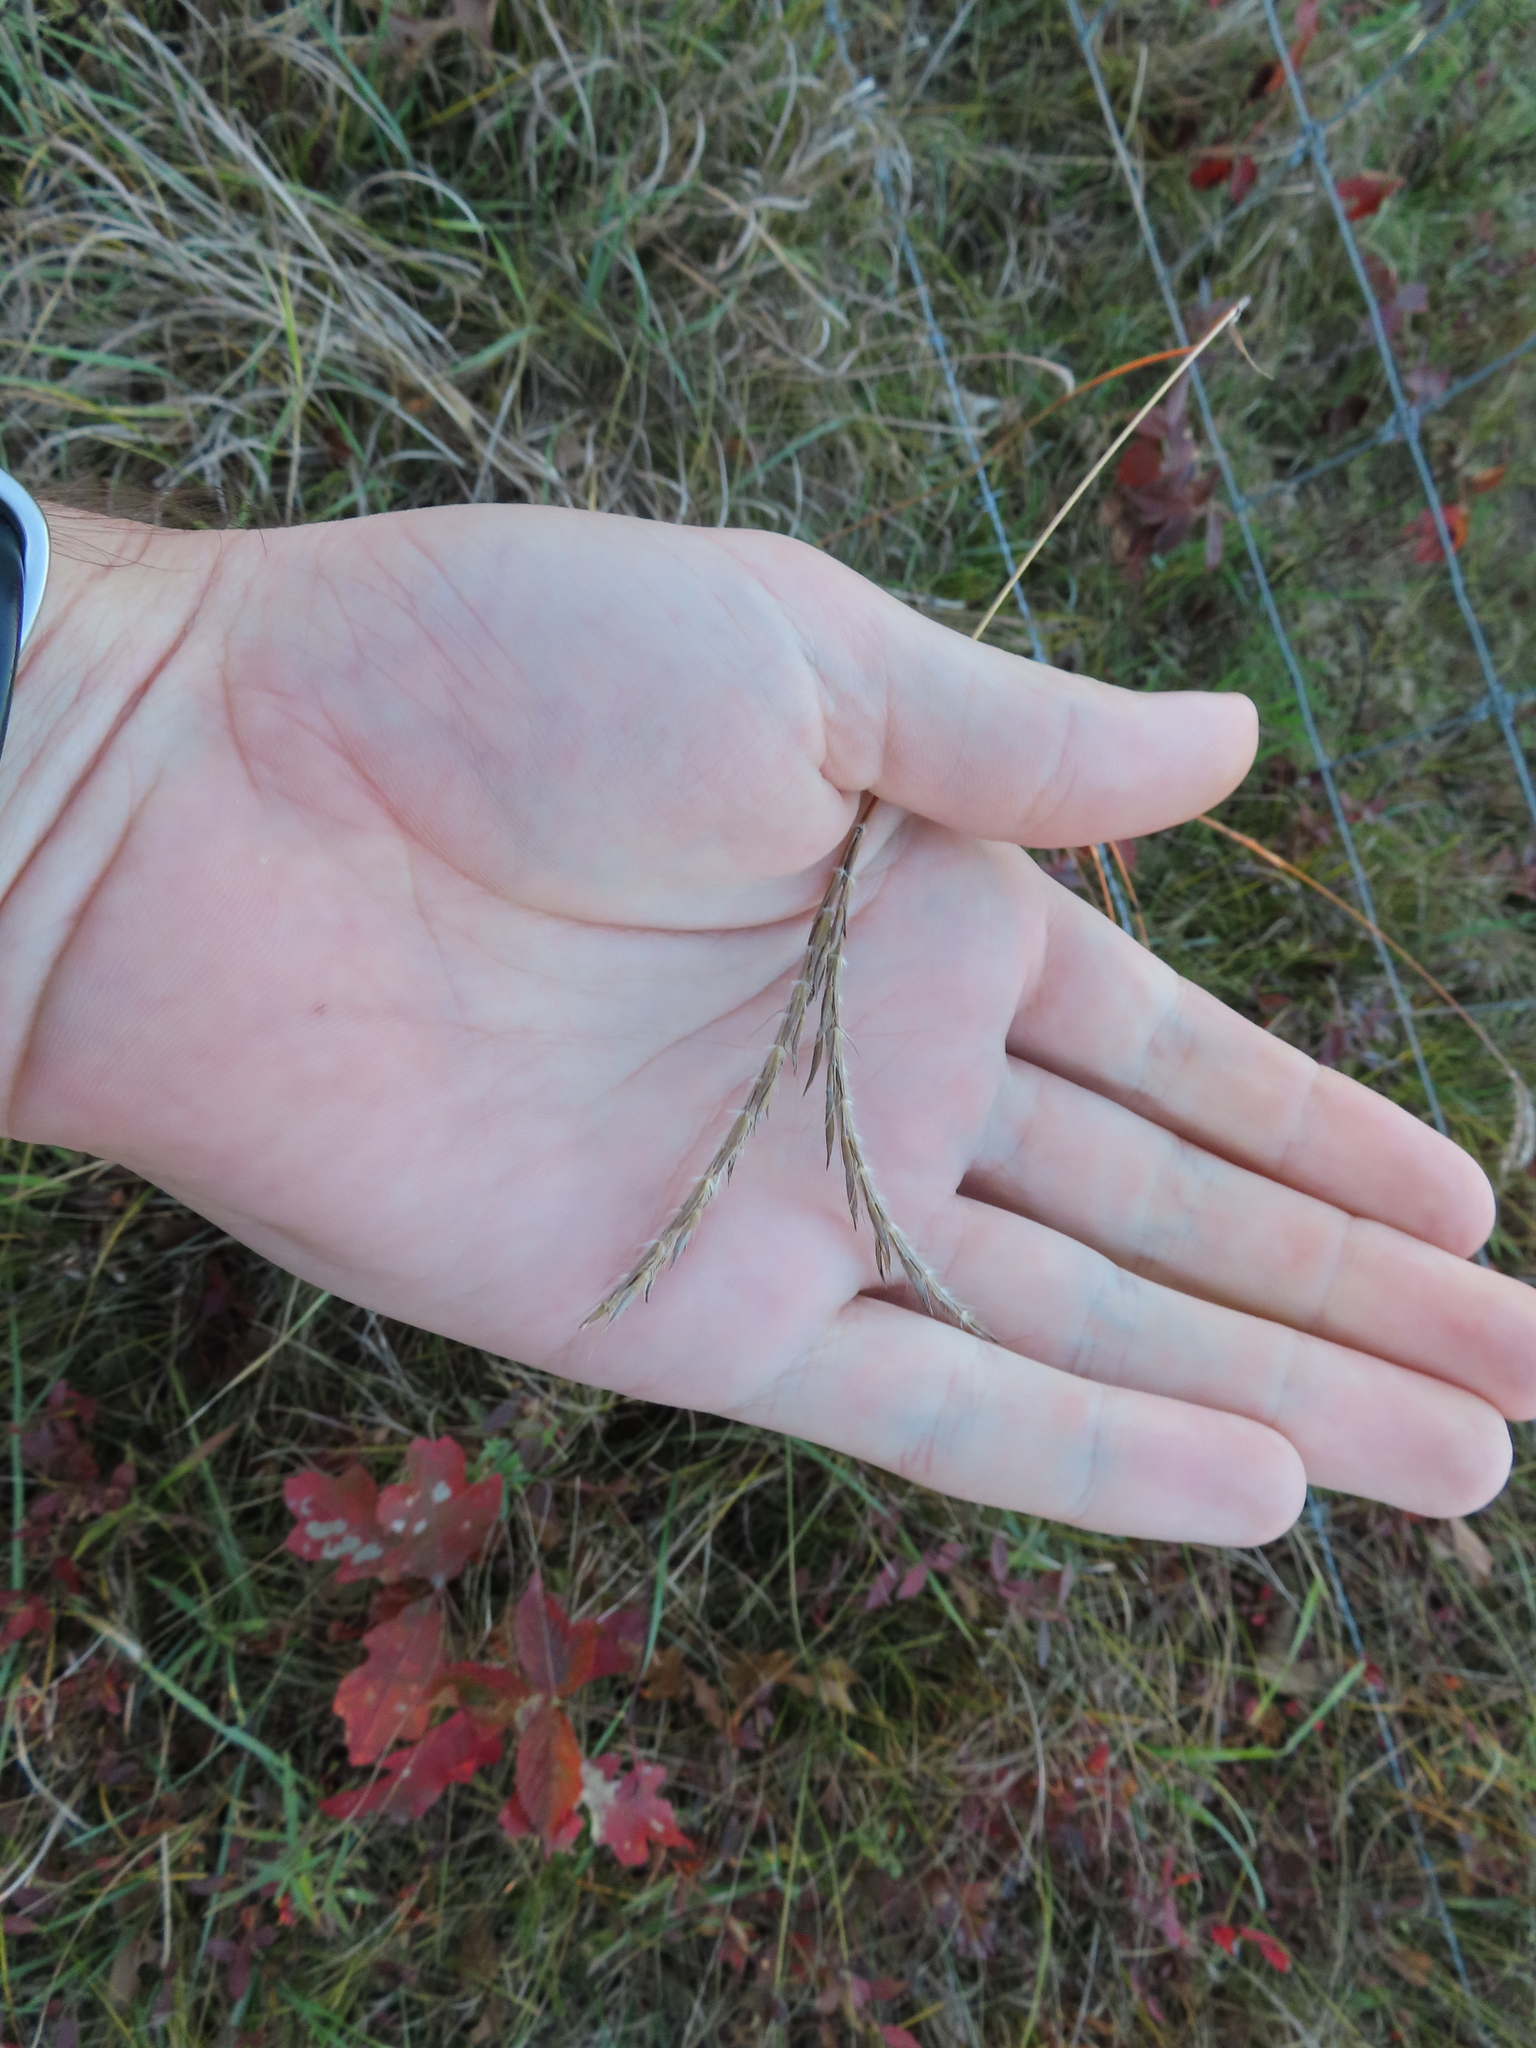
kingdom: Plantae
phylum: Tracheophyta
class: Liliopsida
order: Poales
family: Poaceae
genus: Andropogon
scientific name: Andropogon gerardi
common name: Big bluestem
